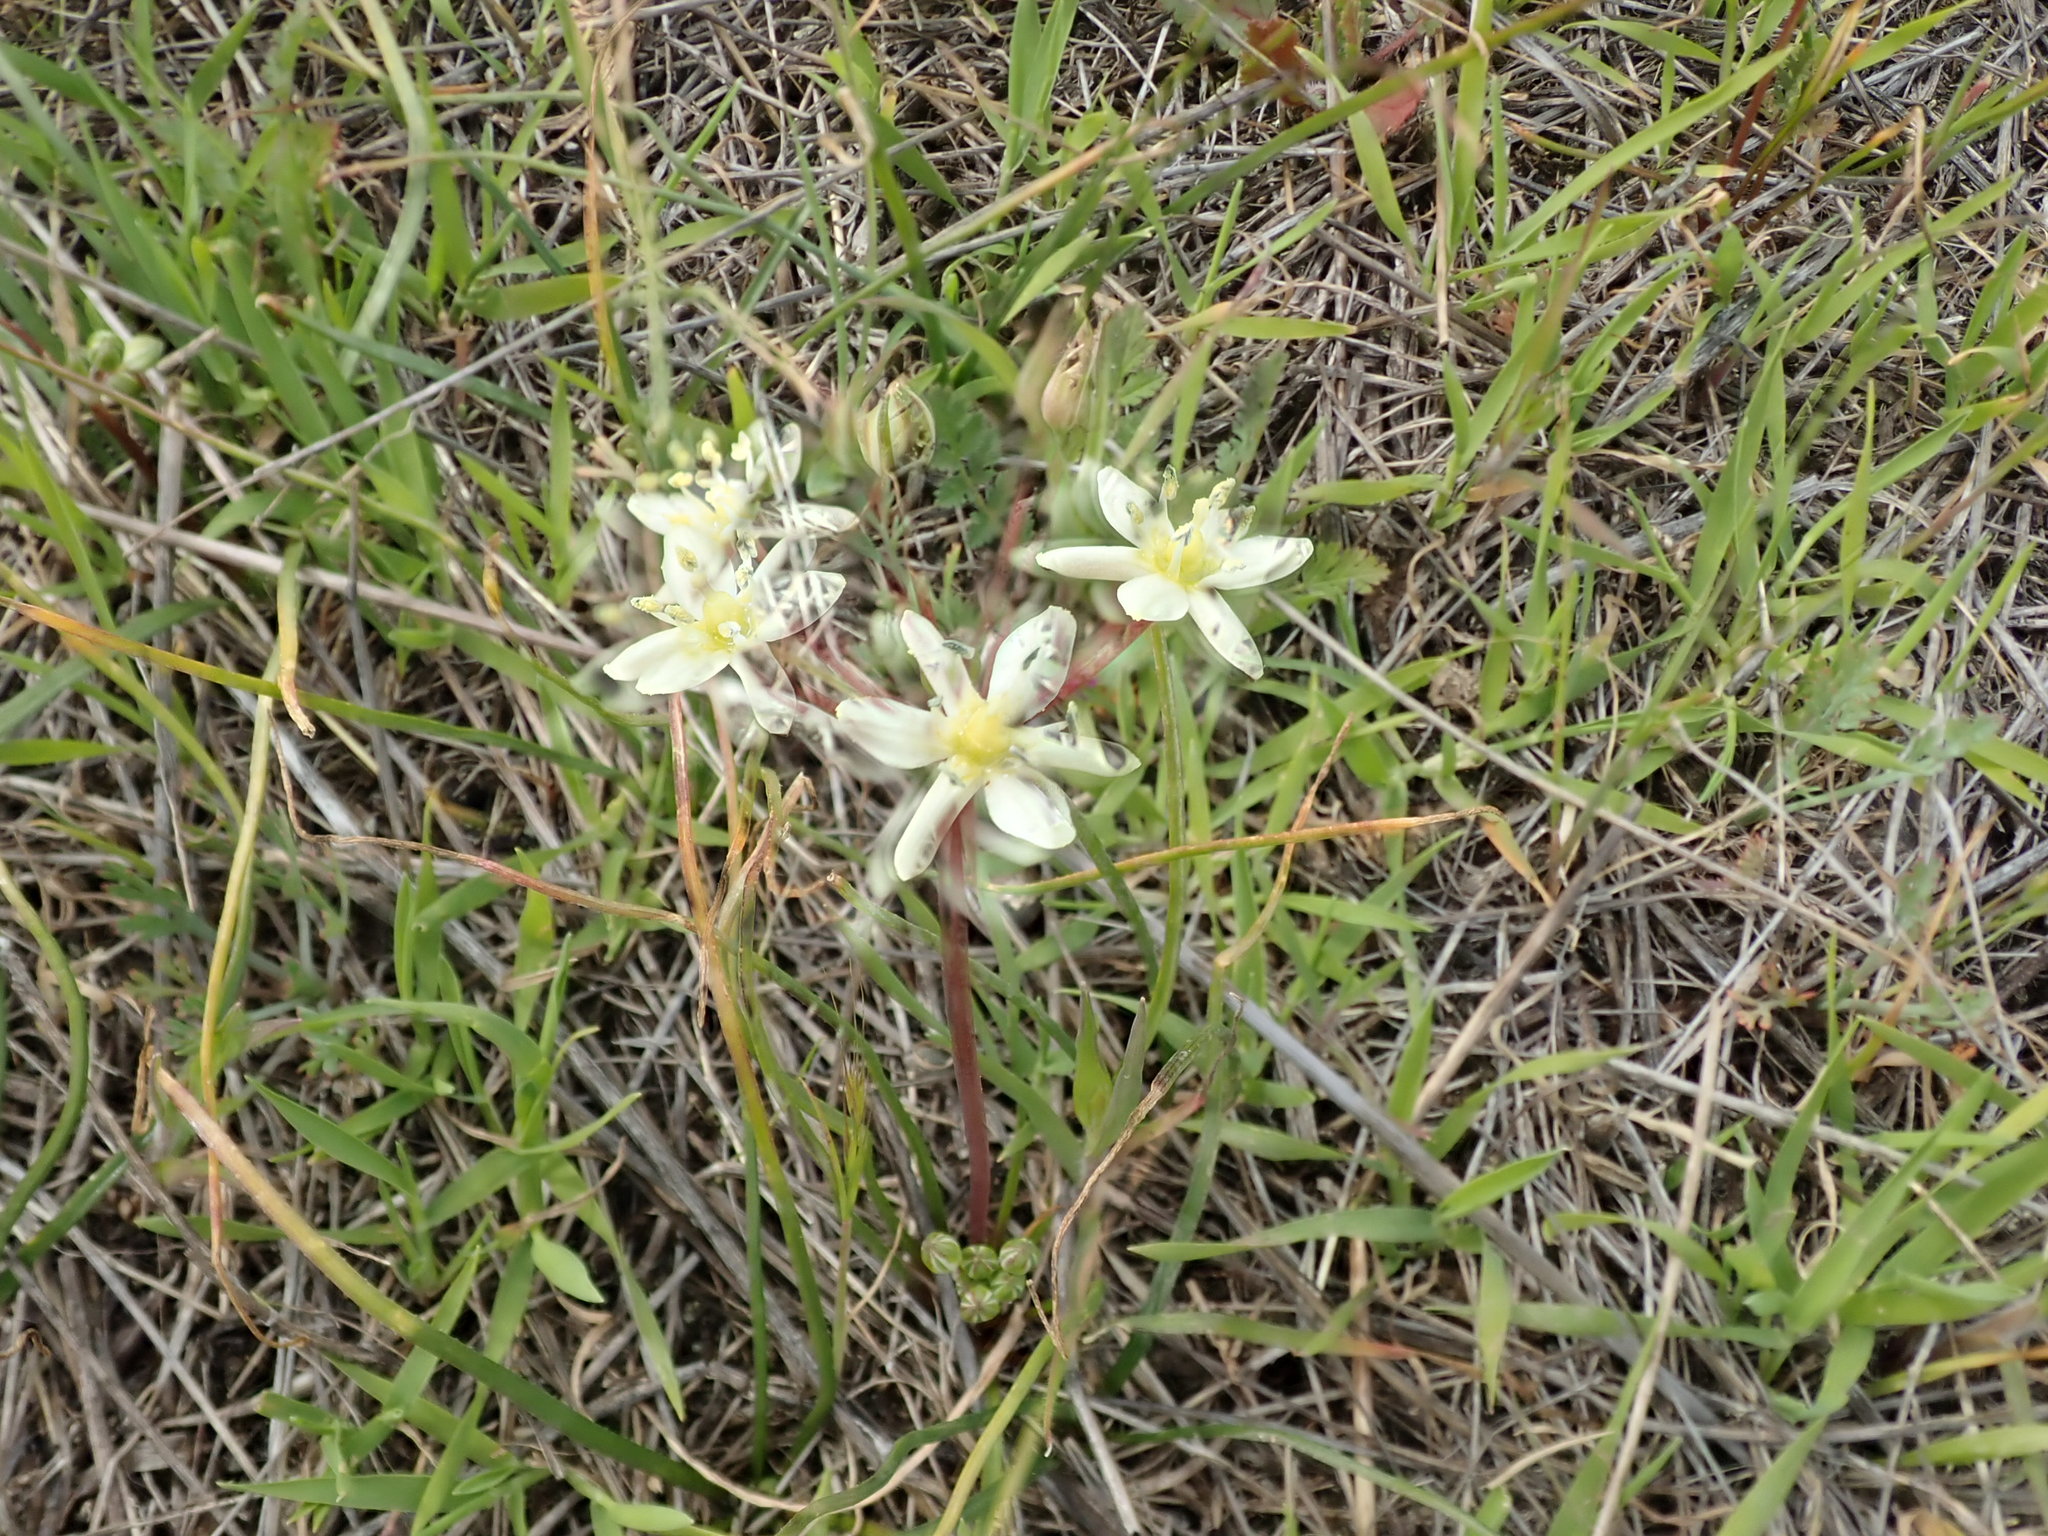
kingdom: Plantae
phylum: Tracheophyta
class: Liliopsida
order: Asparagales
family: Asparagaceae
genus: Muilla
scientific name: Muilla maritima
